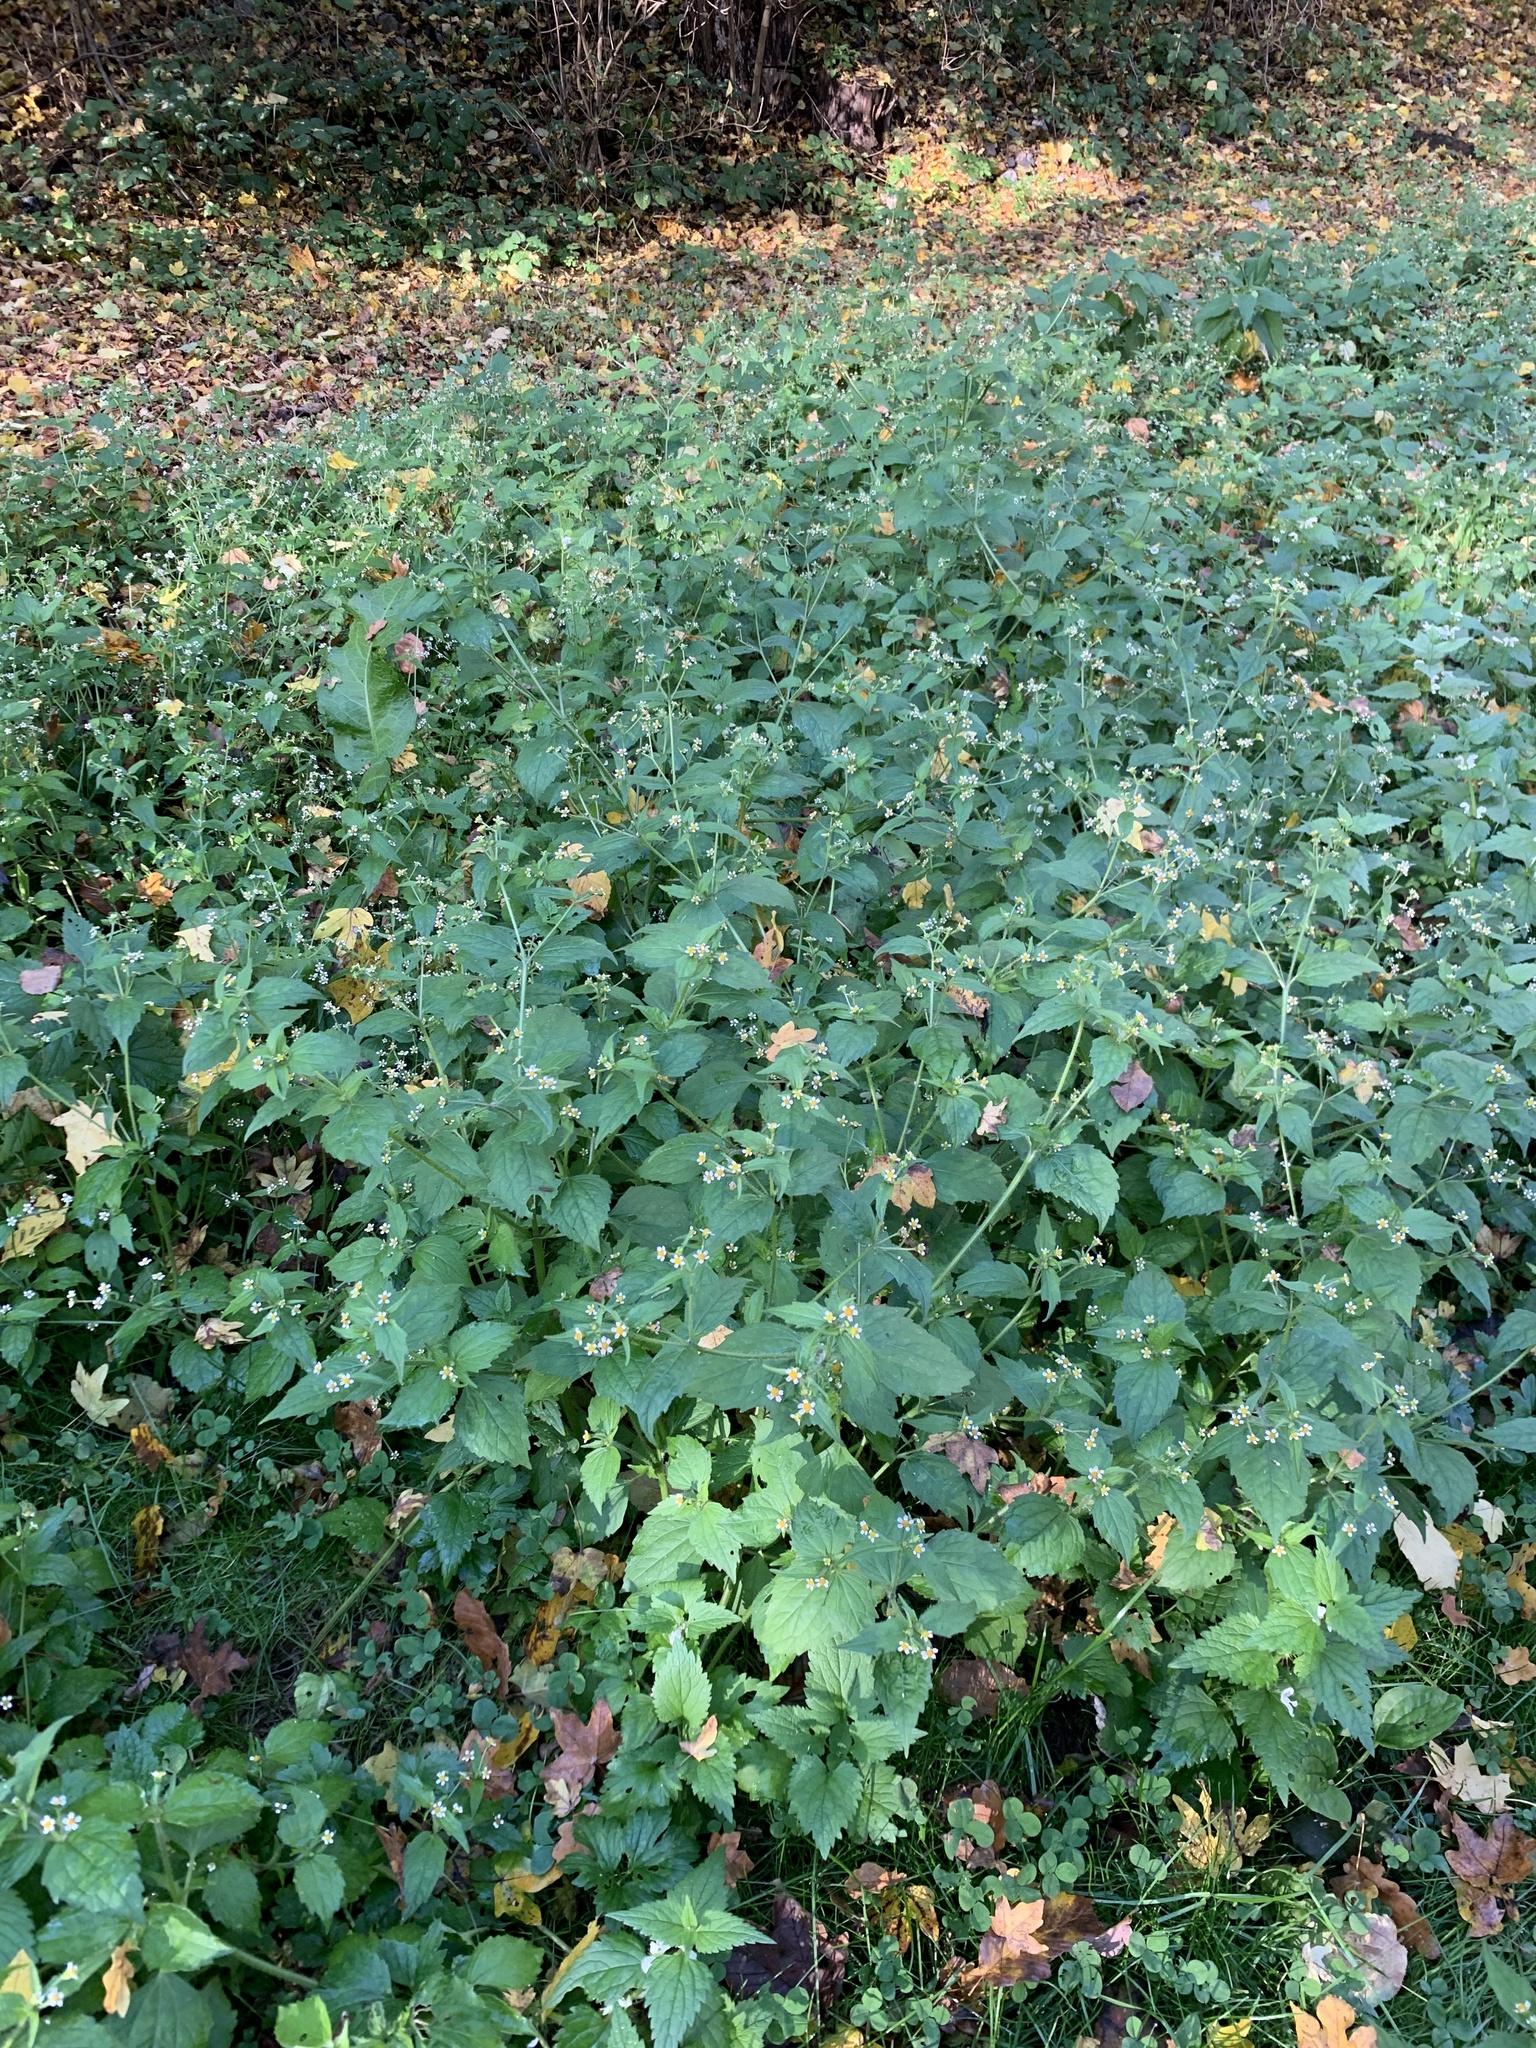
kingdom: Plantae
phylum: Tracheophyta
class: Magnoliopsida
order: Asterales
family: Asteraceae
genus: Galinsoga
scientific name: Galinsoga quadriradiata
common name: Shaggy soldier
